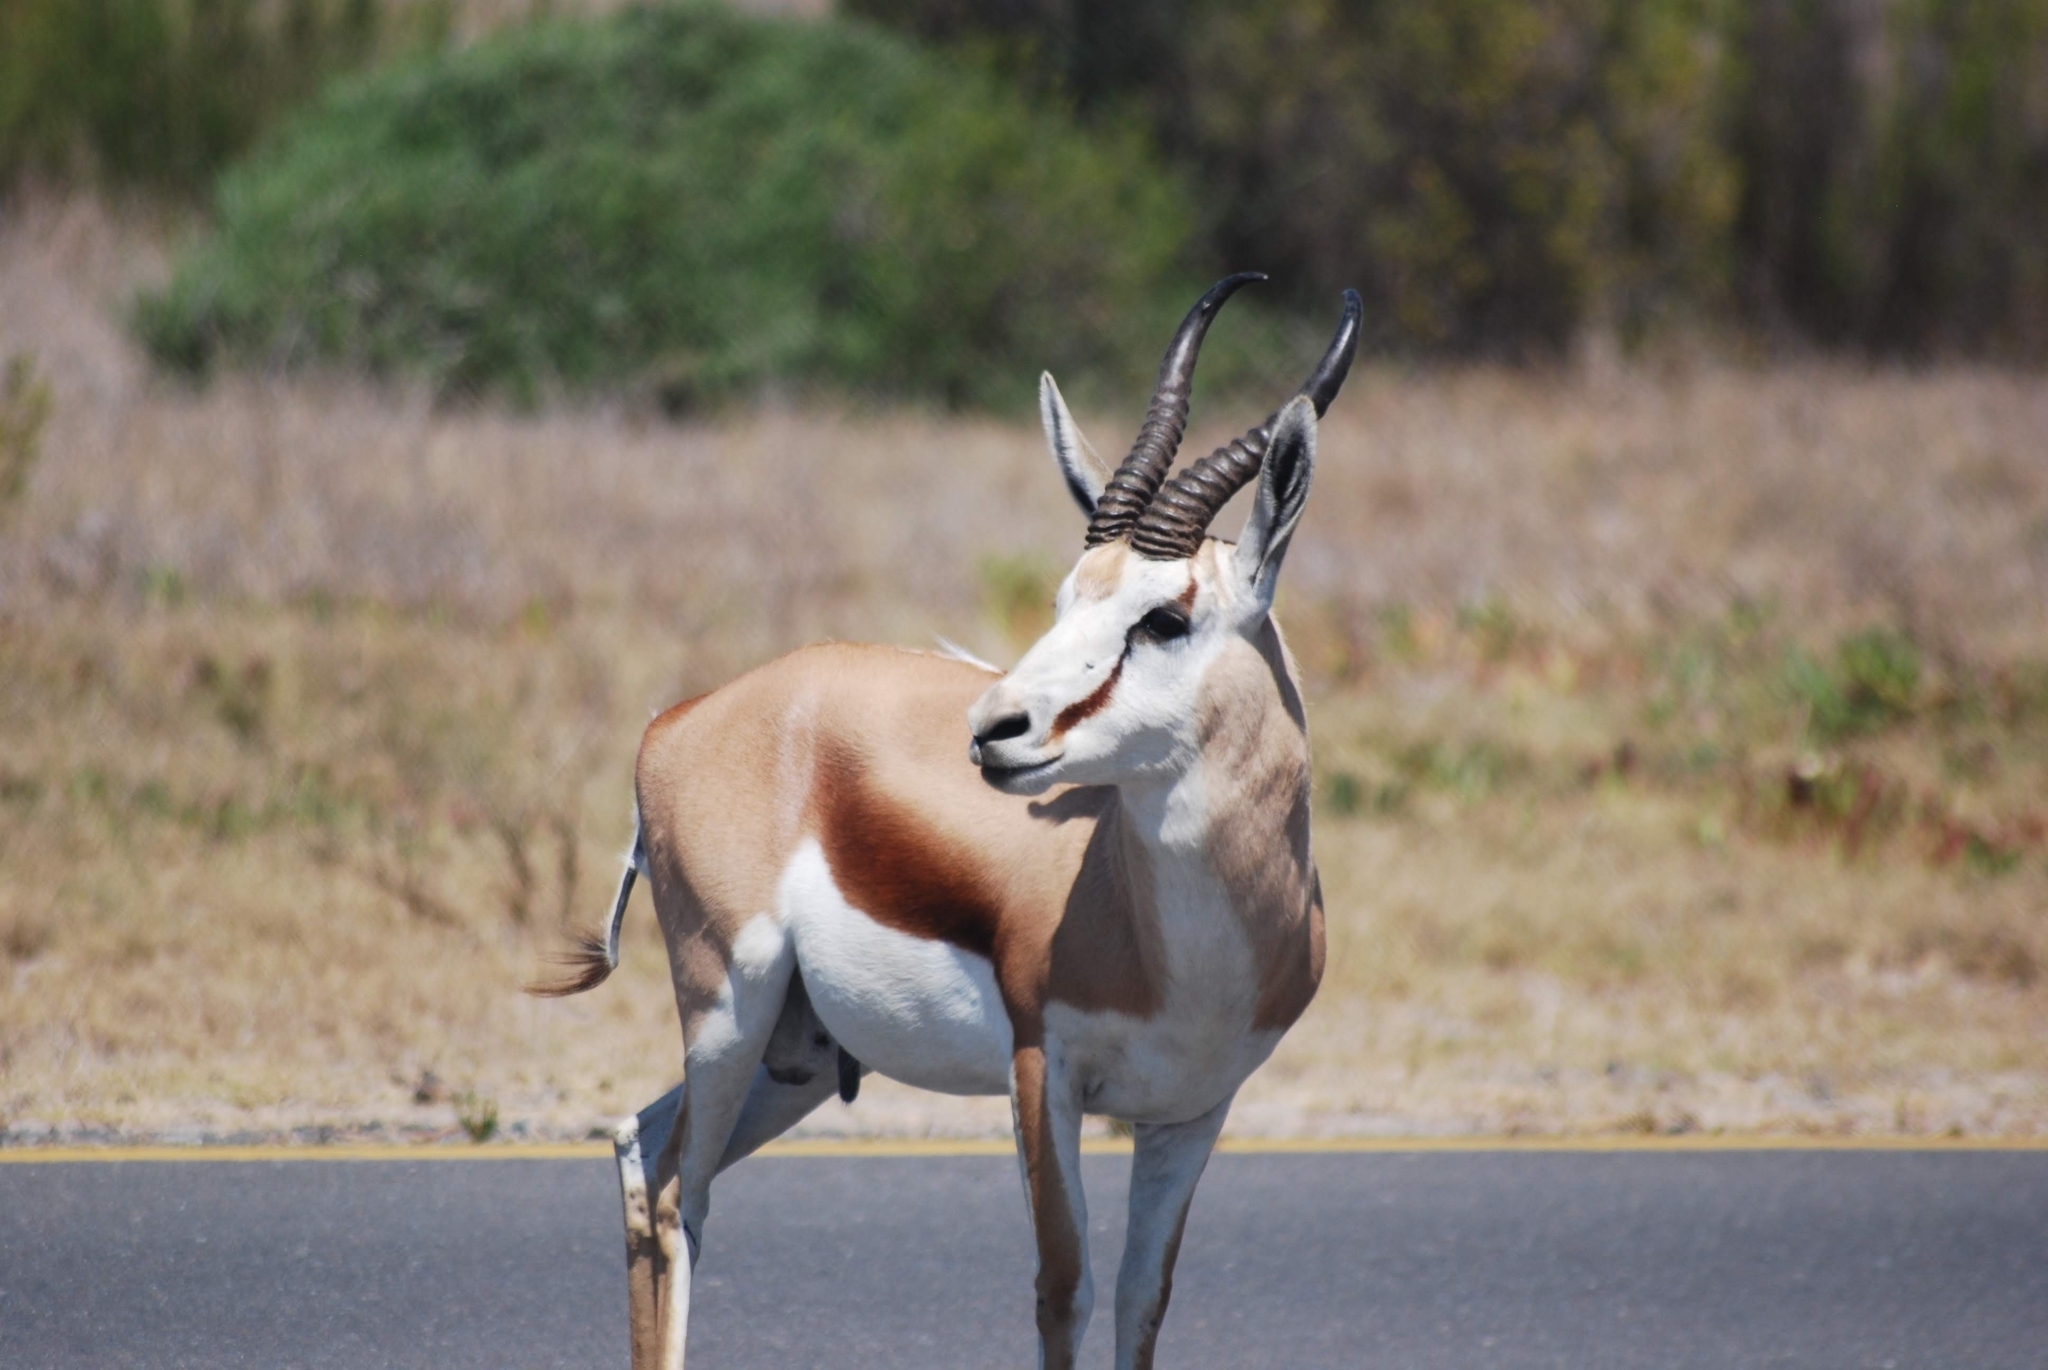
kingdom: Animalia
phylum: Chordata
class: Mammalia
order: Artiodactyla
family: Bovidae
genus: Antidorcas
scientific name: Antidorcas marsupialis
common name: Springbok
